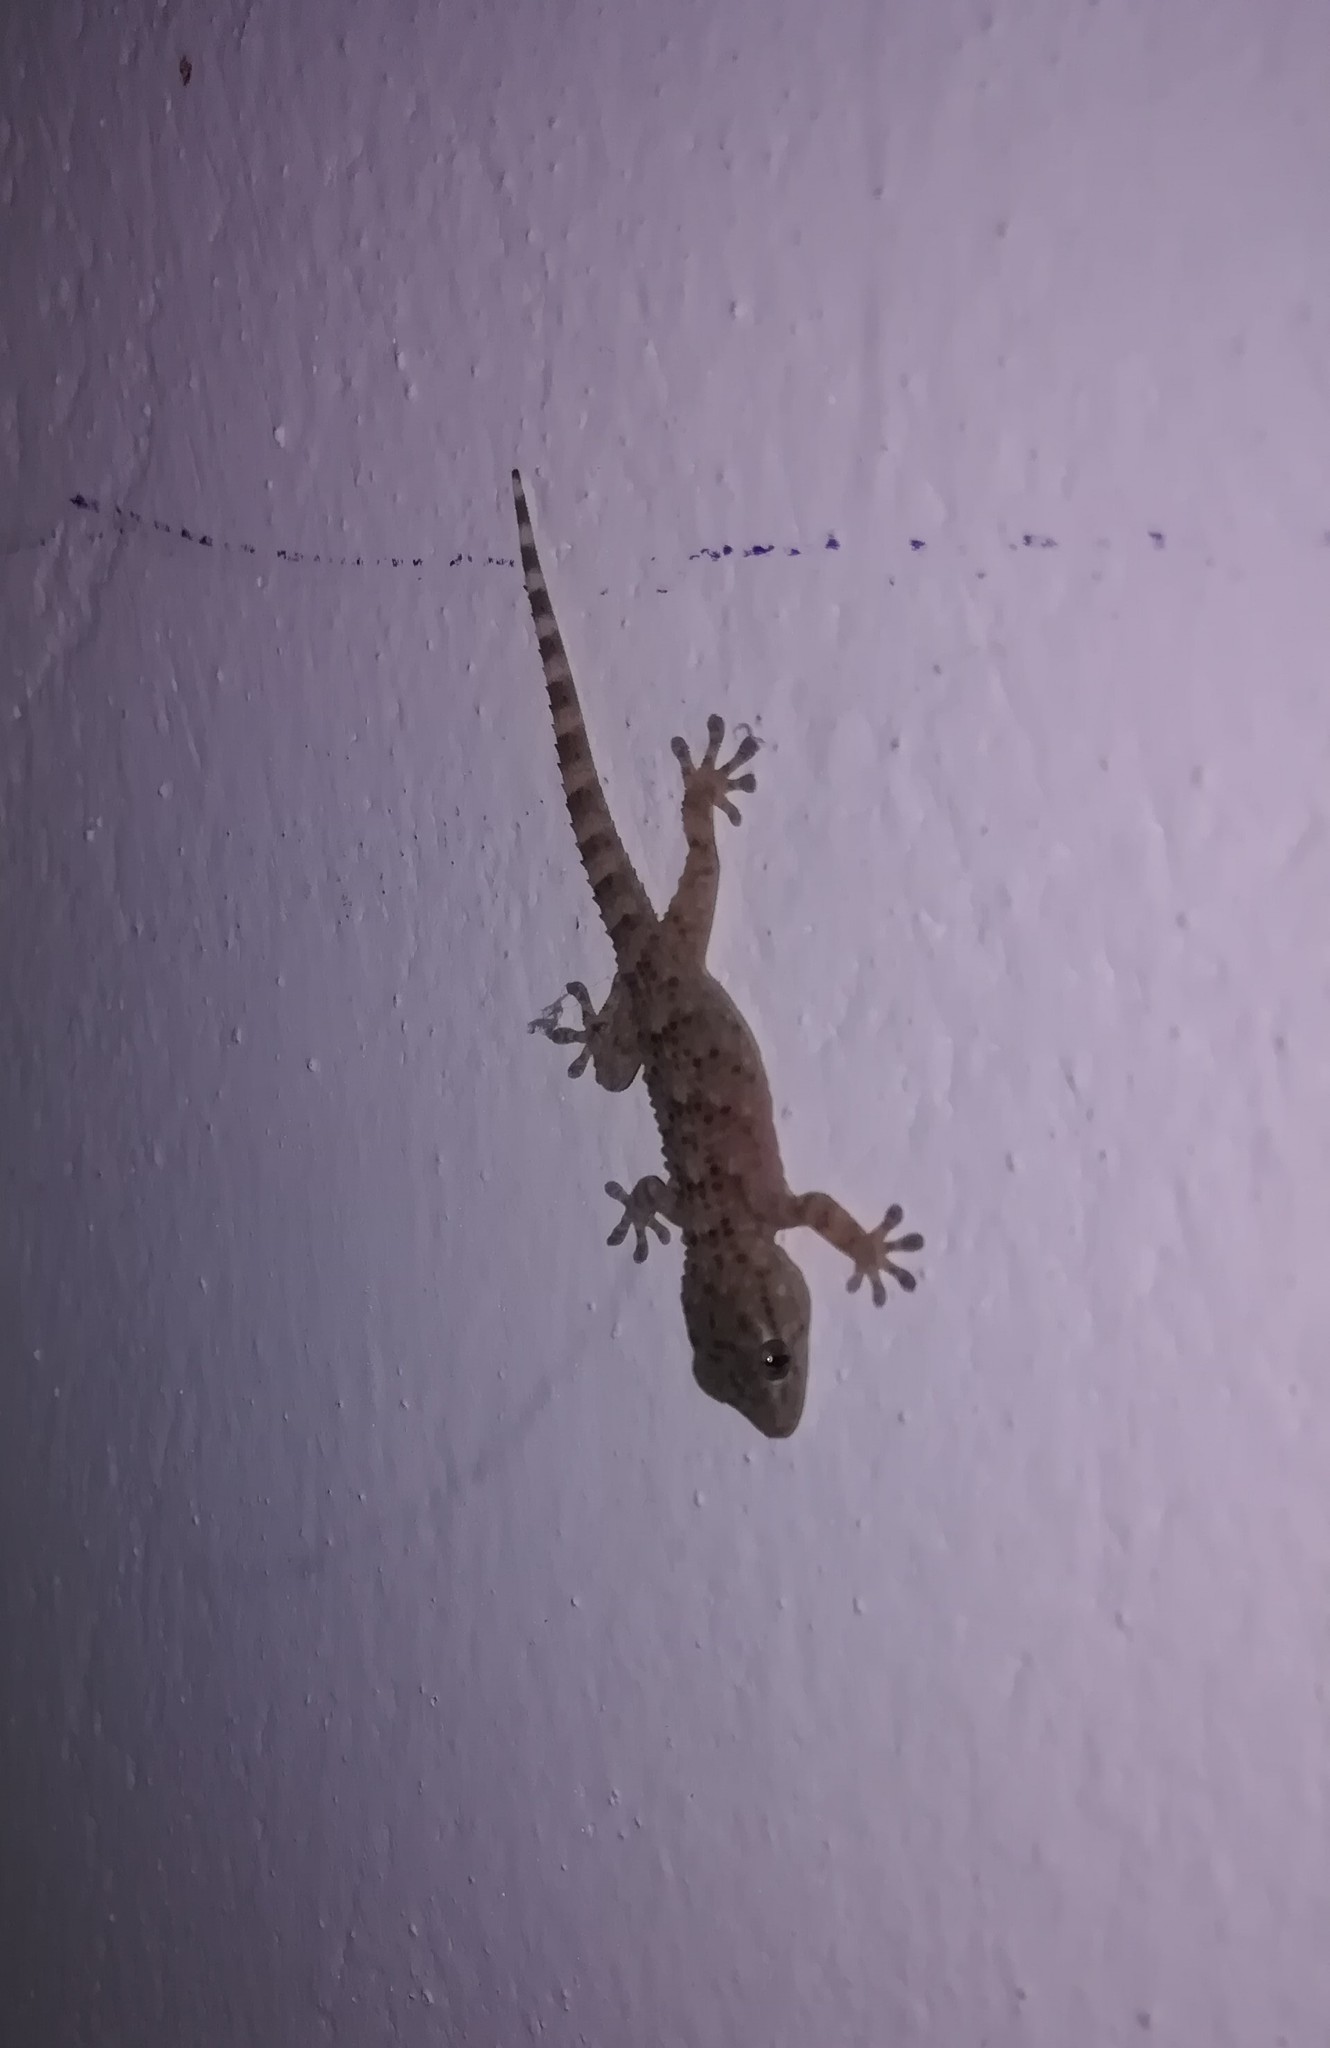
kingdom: Animalia
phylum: Chordata
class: Squamata
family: Phyllodactylidae
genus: Tarentola
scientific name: Tarentola mauritanica
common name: Moorish gecko
